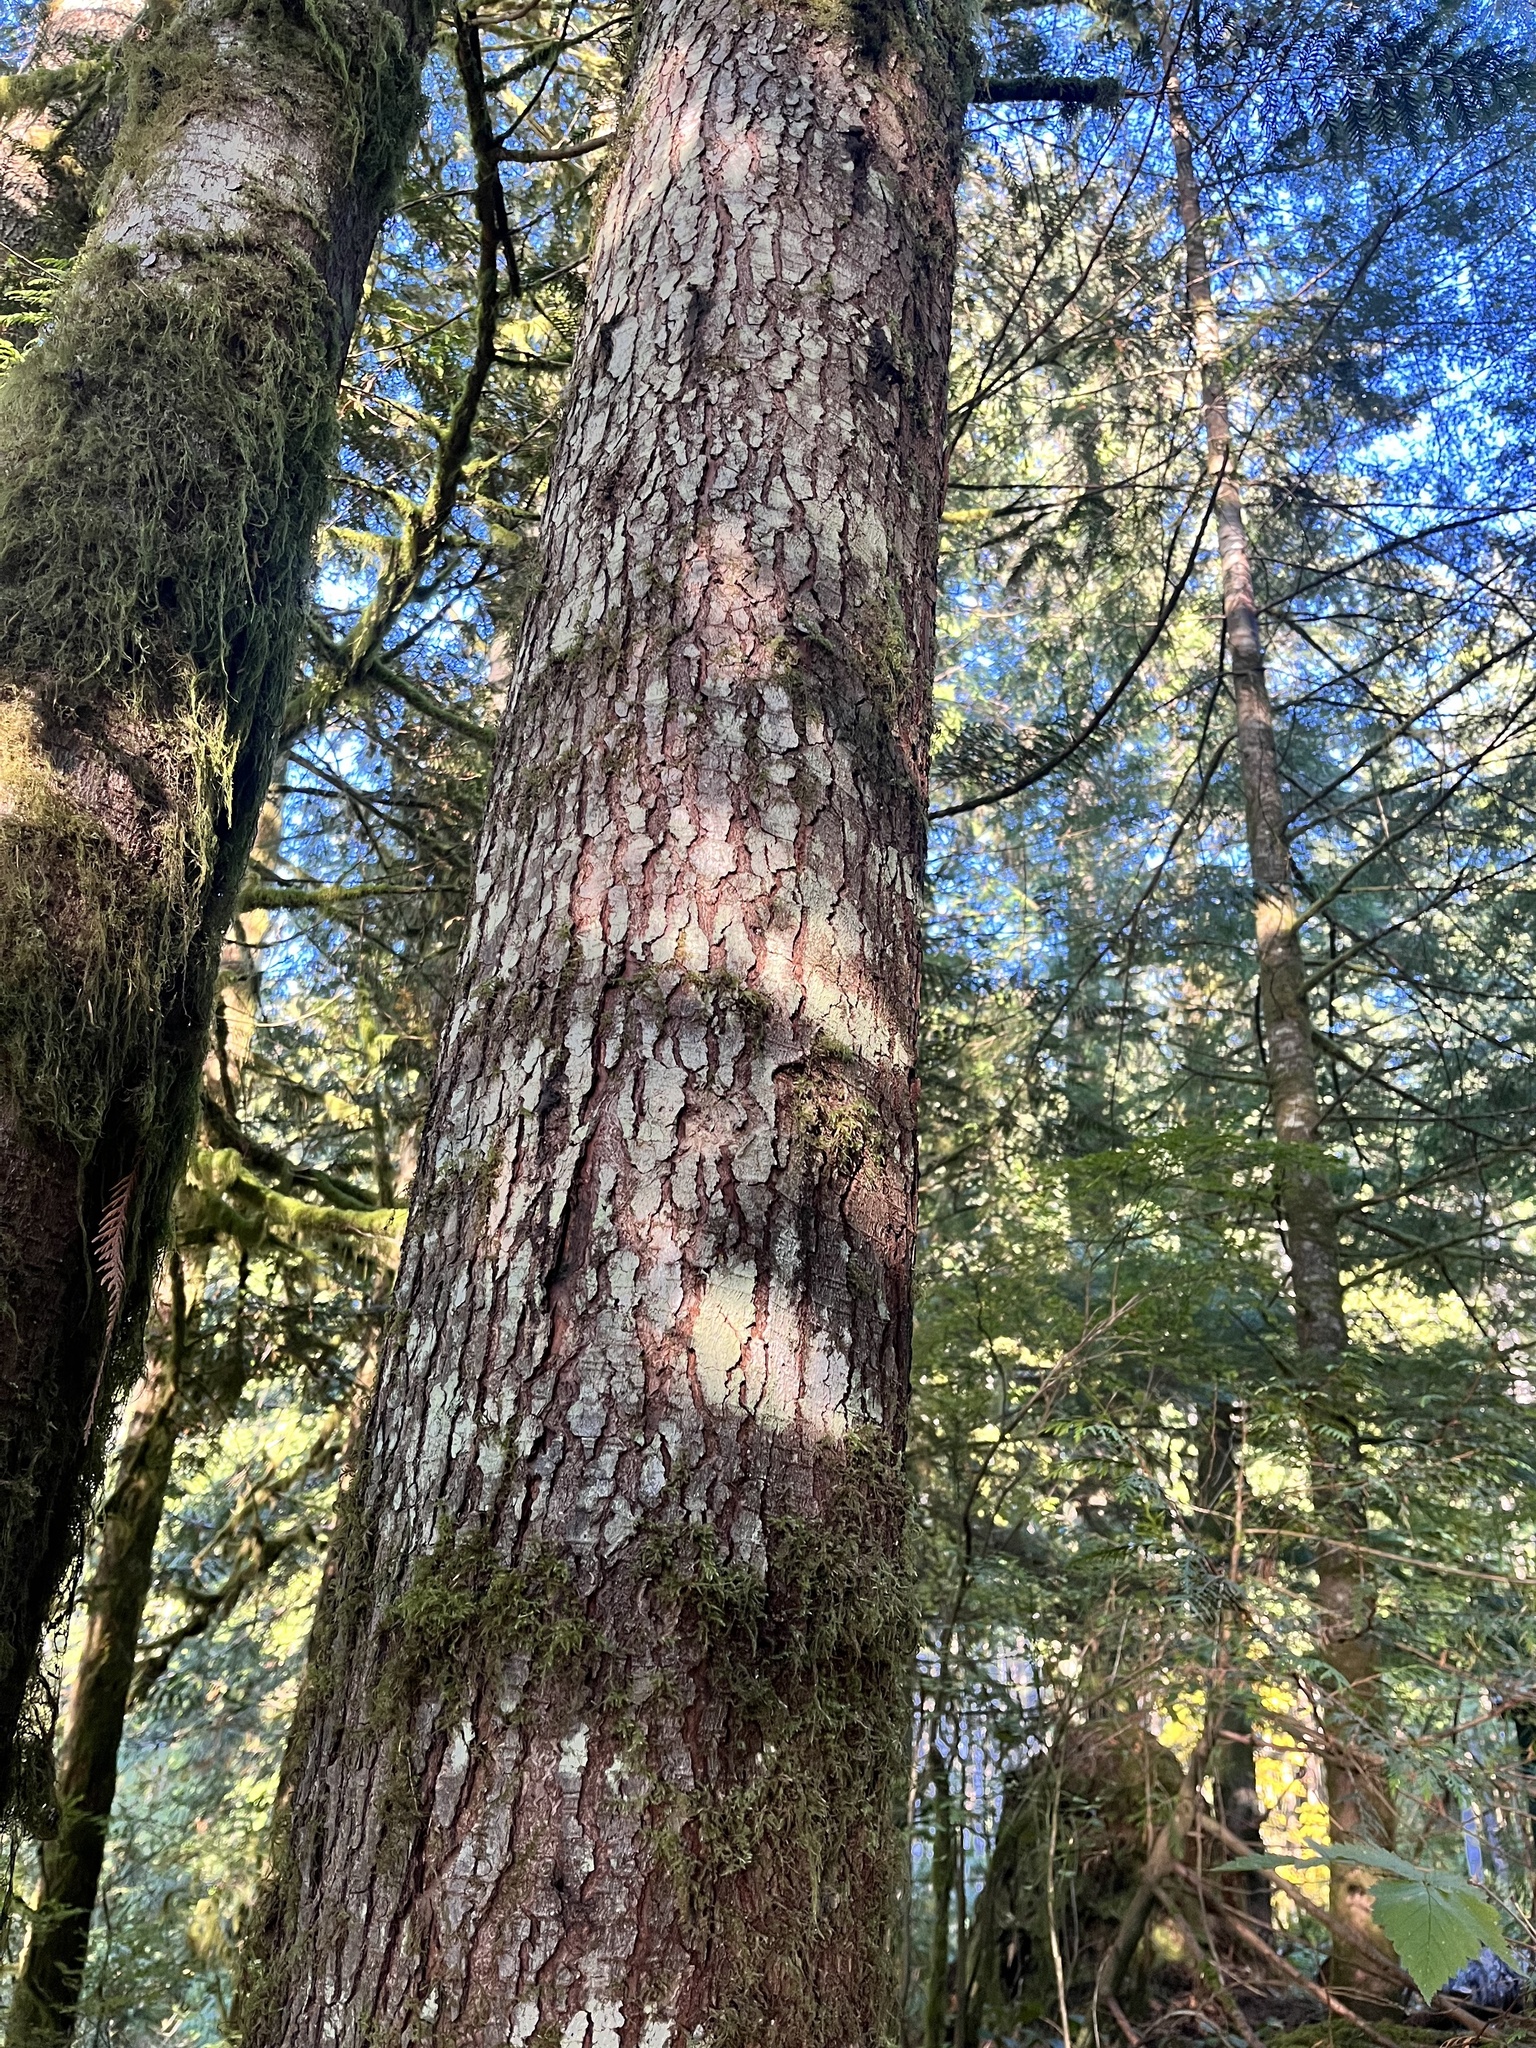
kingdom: Plantae
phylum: Tracheophyta
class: Pinopsida
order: Pinales
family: Pinaceae
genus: Tsuga
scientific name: Tsuga heterophylla
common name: Western hemlock
